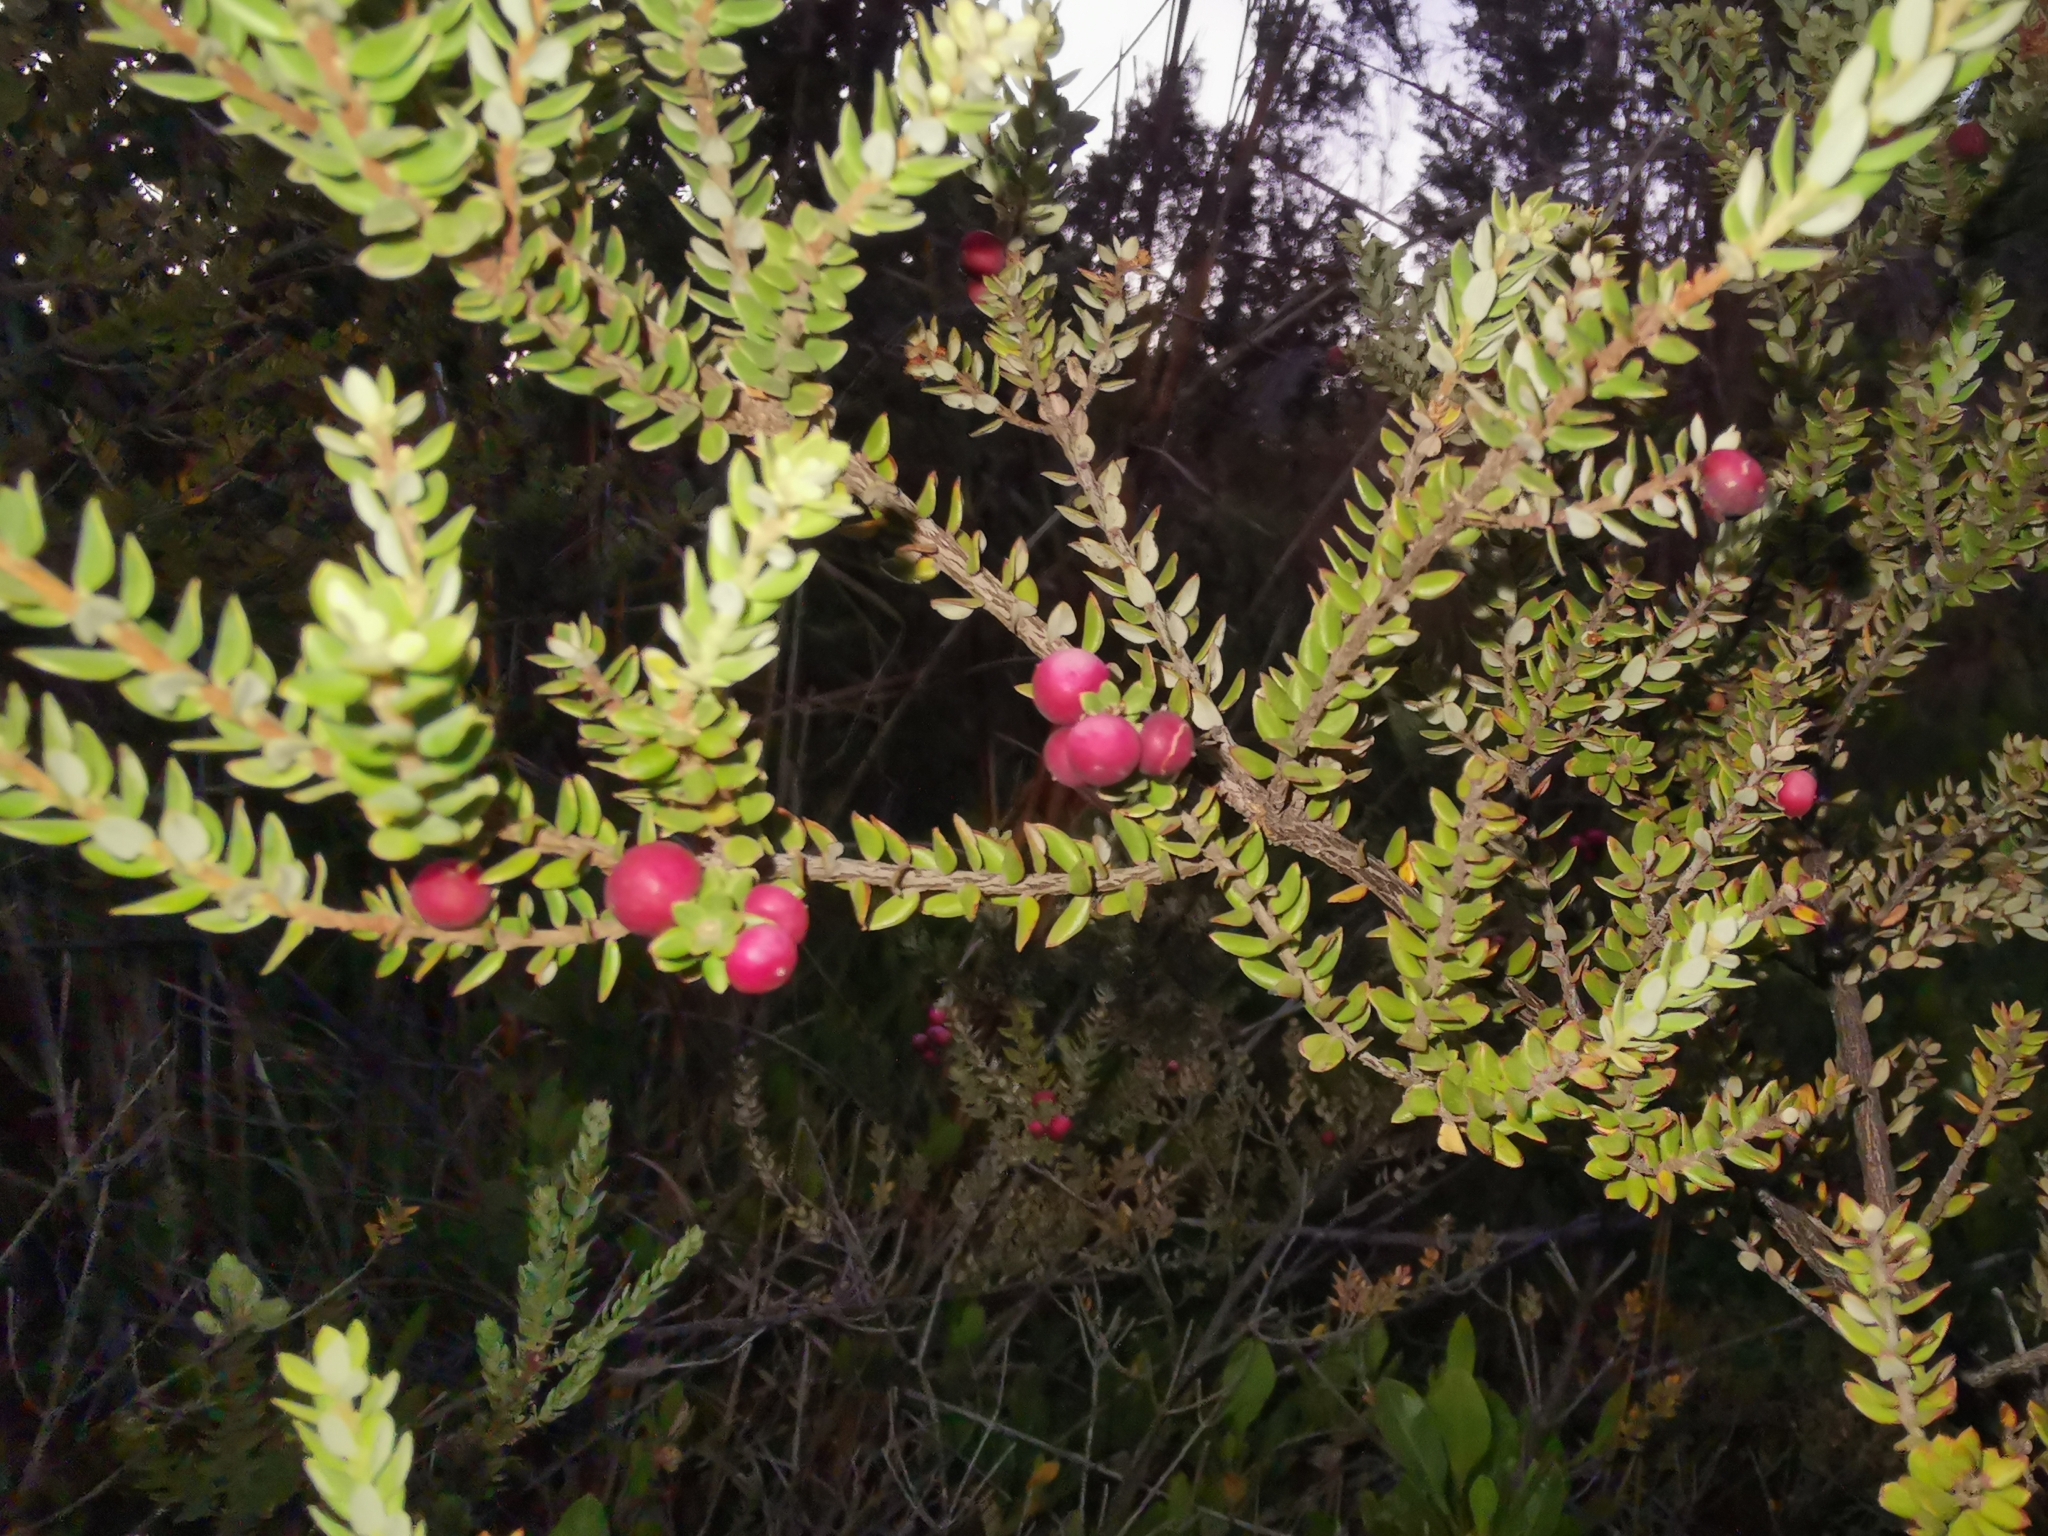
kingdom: Plantae
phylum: Tracheophyta
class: Magnoliopsida
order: Ericales
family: Ericaceae
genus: Leptecophylla
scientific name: Leptecophylla tameiameiae
